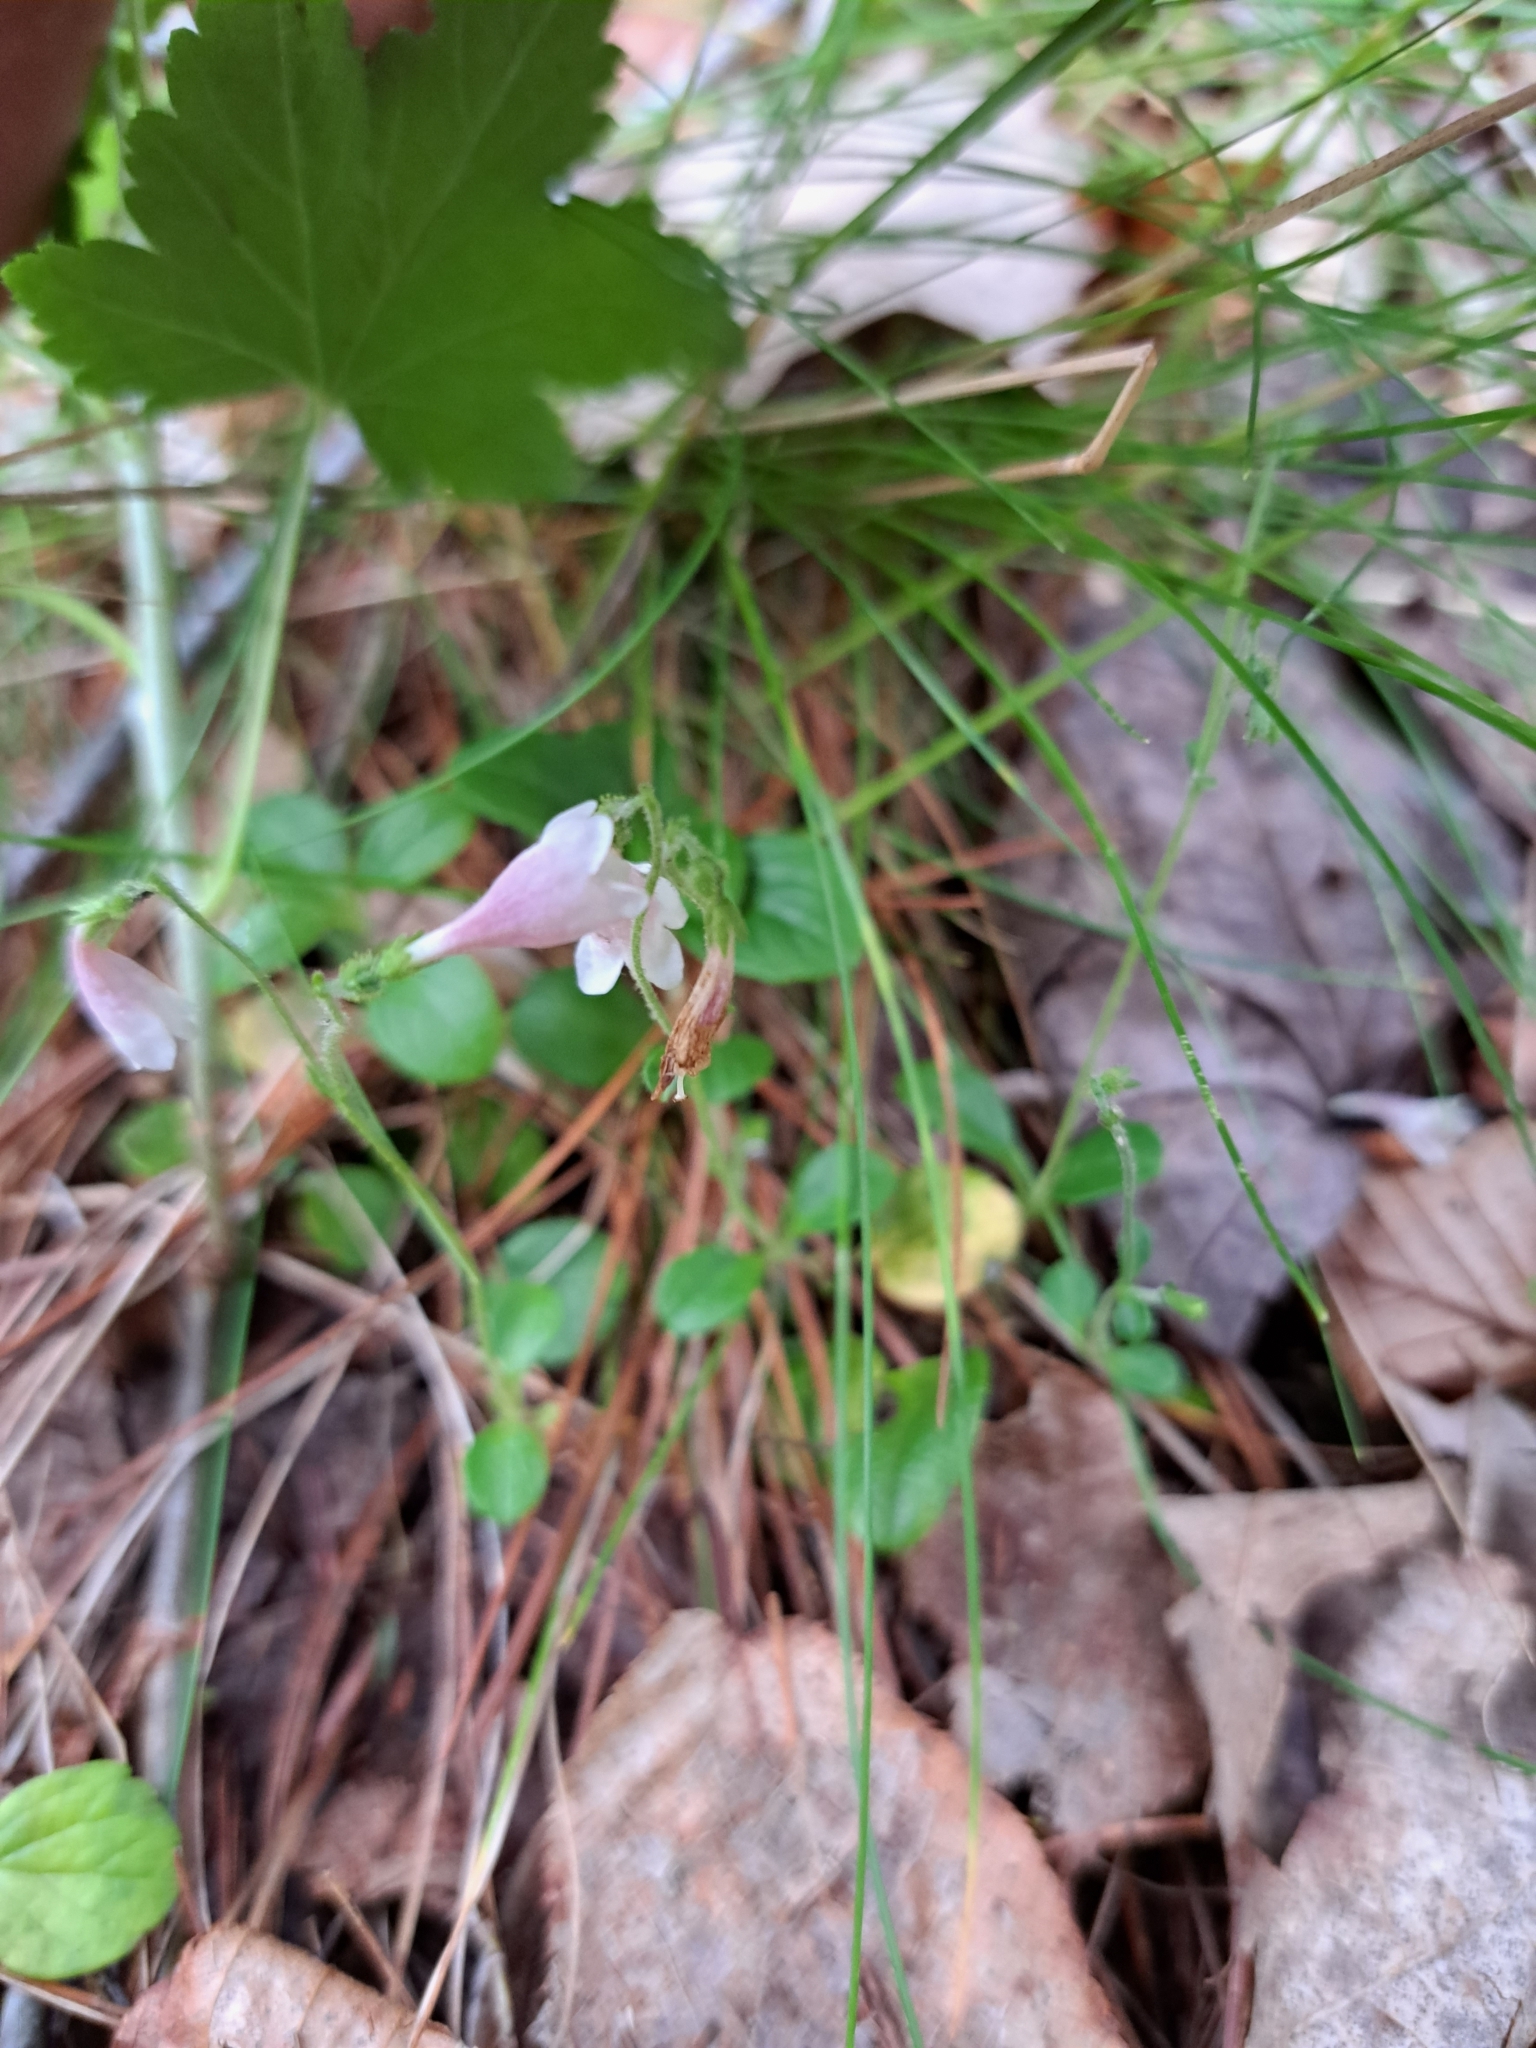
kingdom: Plantae
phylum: Tracheophyta
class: Magnoliopsida
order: Dipsacales
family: Caprifoliaceae
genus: Linnaea
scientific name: Linnaea borealis
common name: Twinflower
